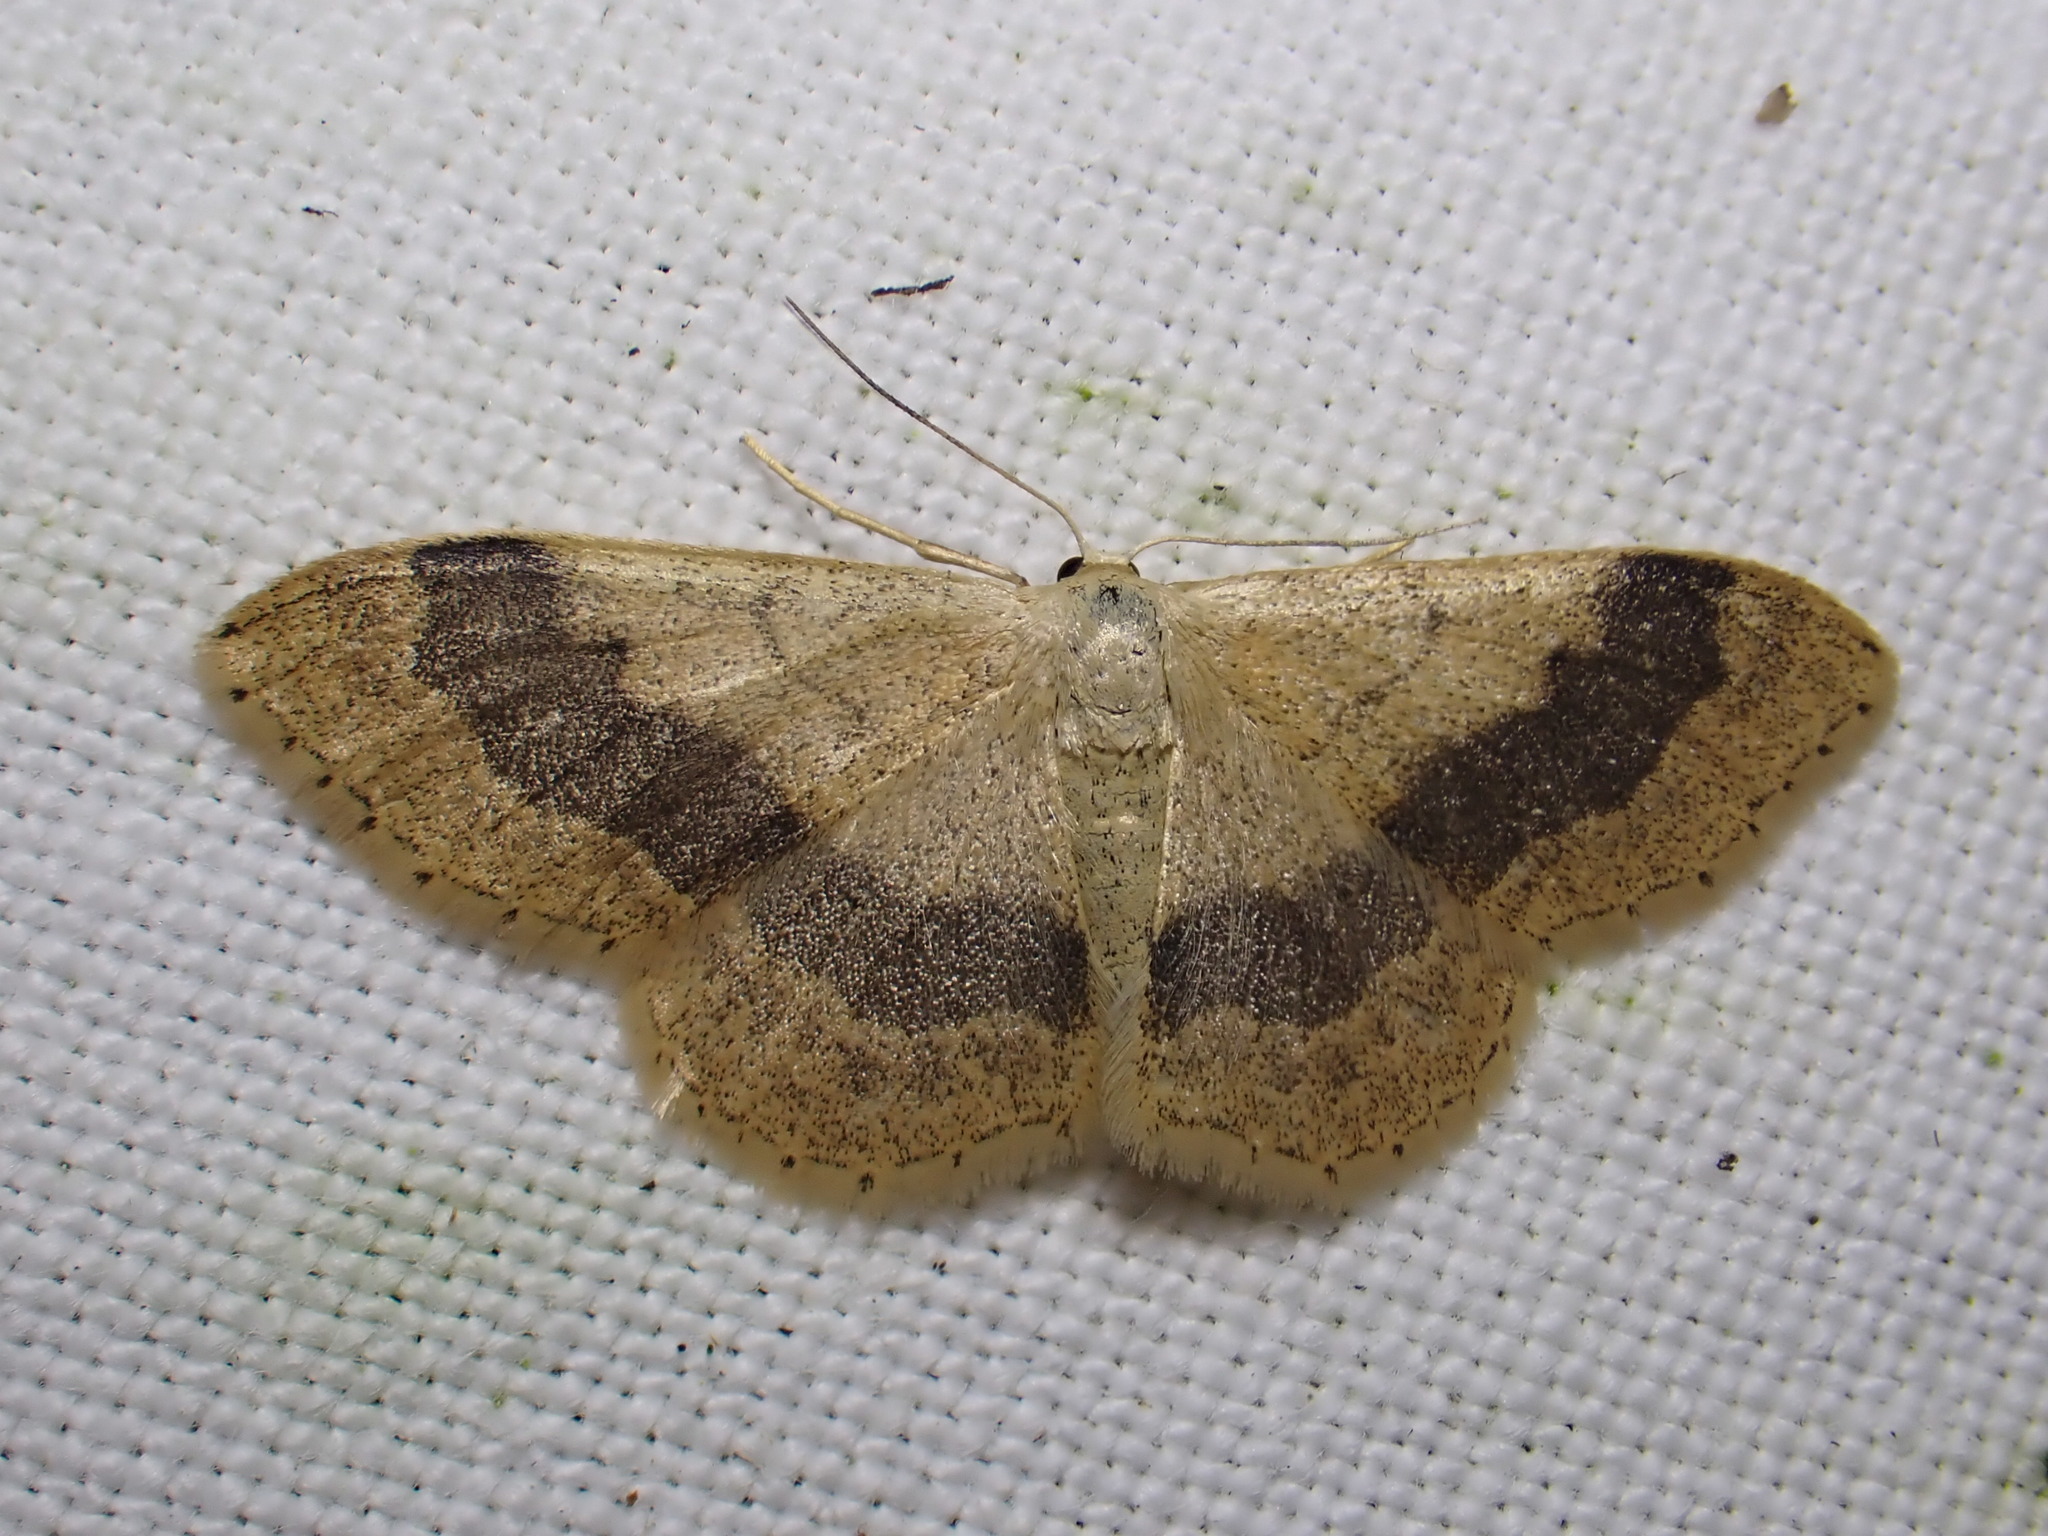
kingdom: Animalia
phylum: Arthropoda
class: Insecta
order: Lepidoptera
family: Geometridae
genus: Idaea
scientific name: Idaea aversata
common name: Riband wave
